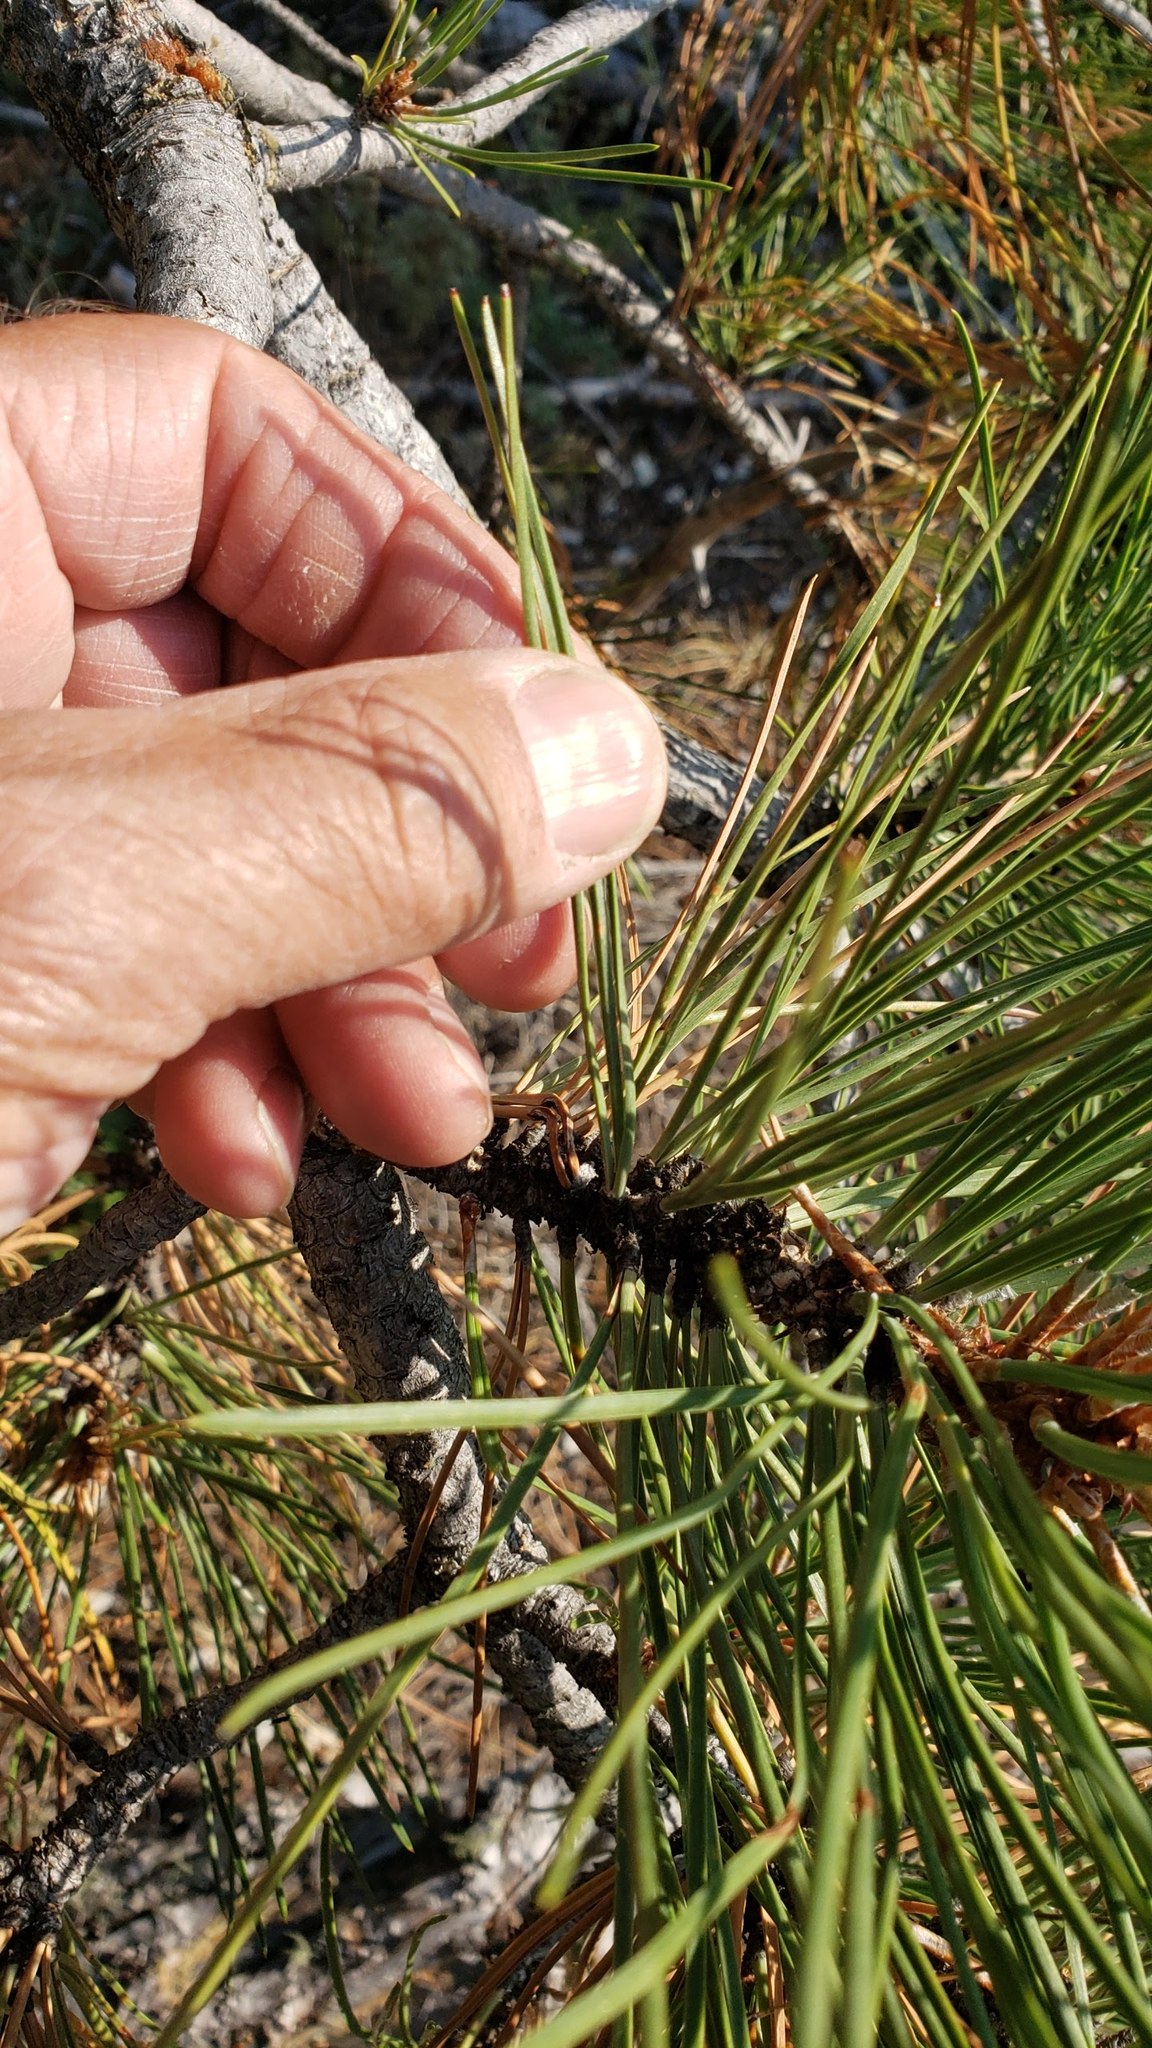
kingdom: Plantae
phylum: Tracheophyta
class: Pinopsida
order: Pinales
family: Pinaceae
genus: Pinus
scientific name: Pinus ponderosa
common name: Western yellow-pine
